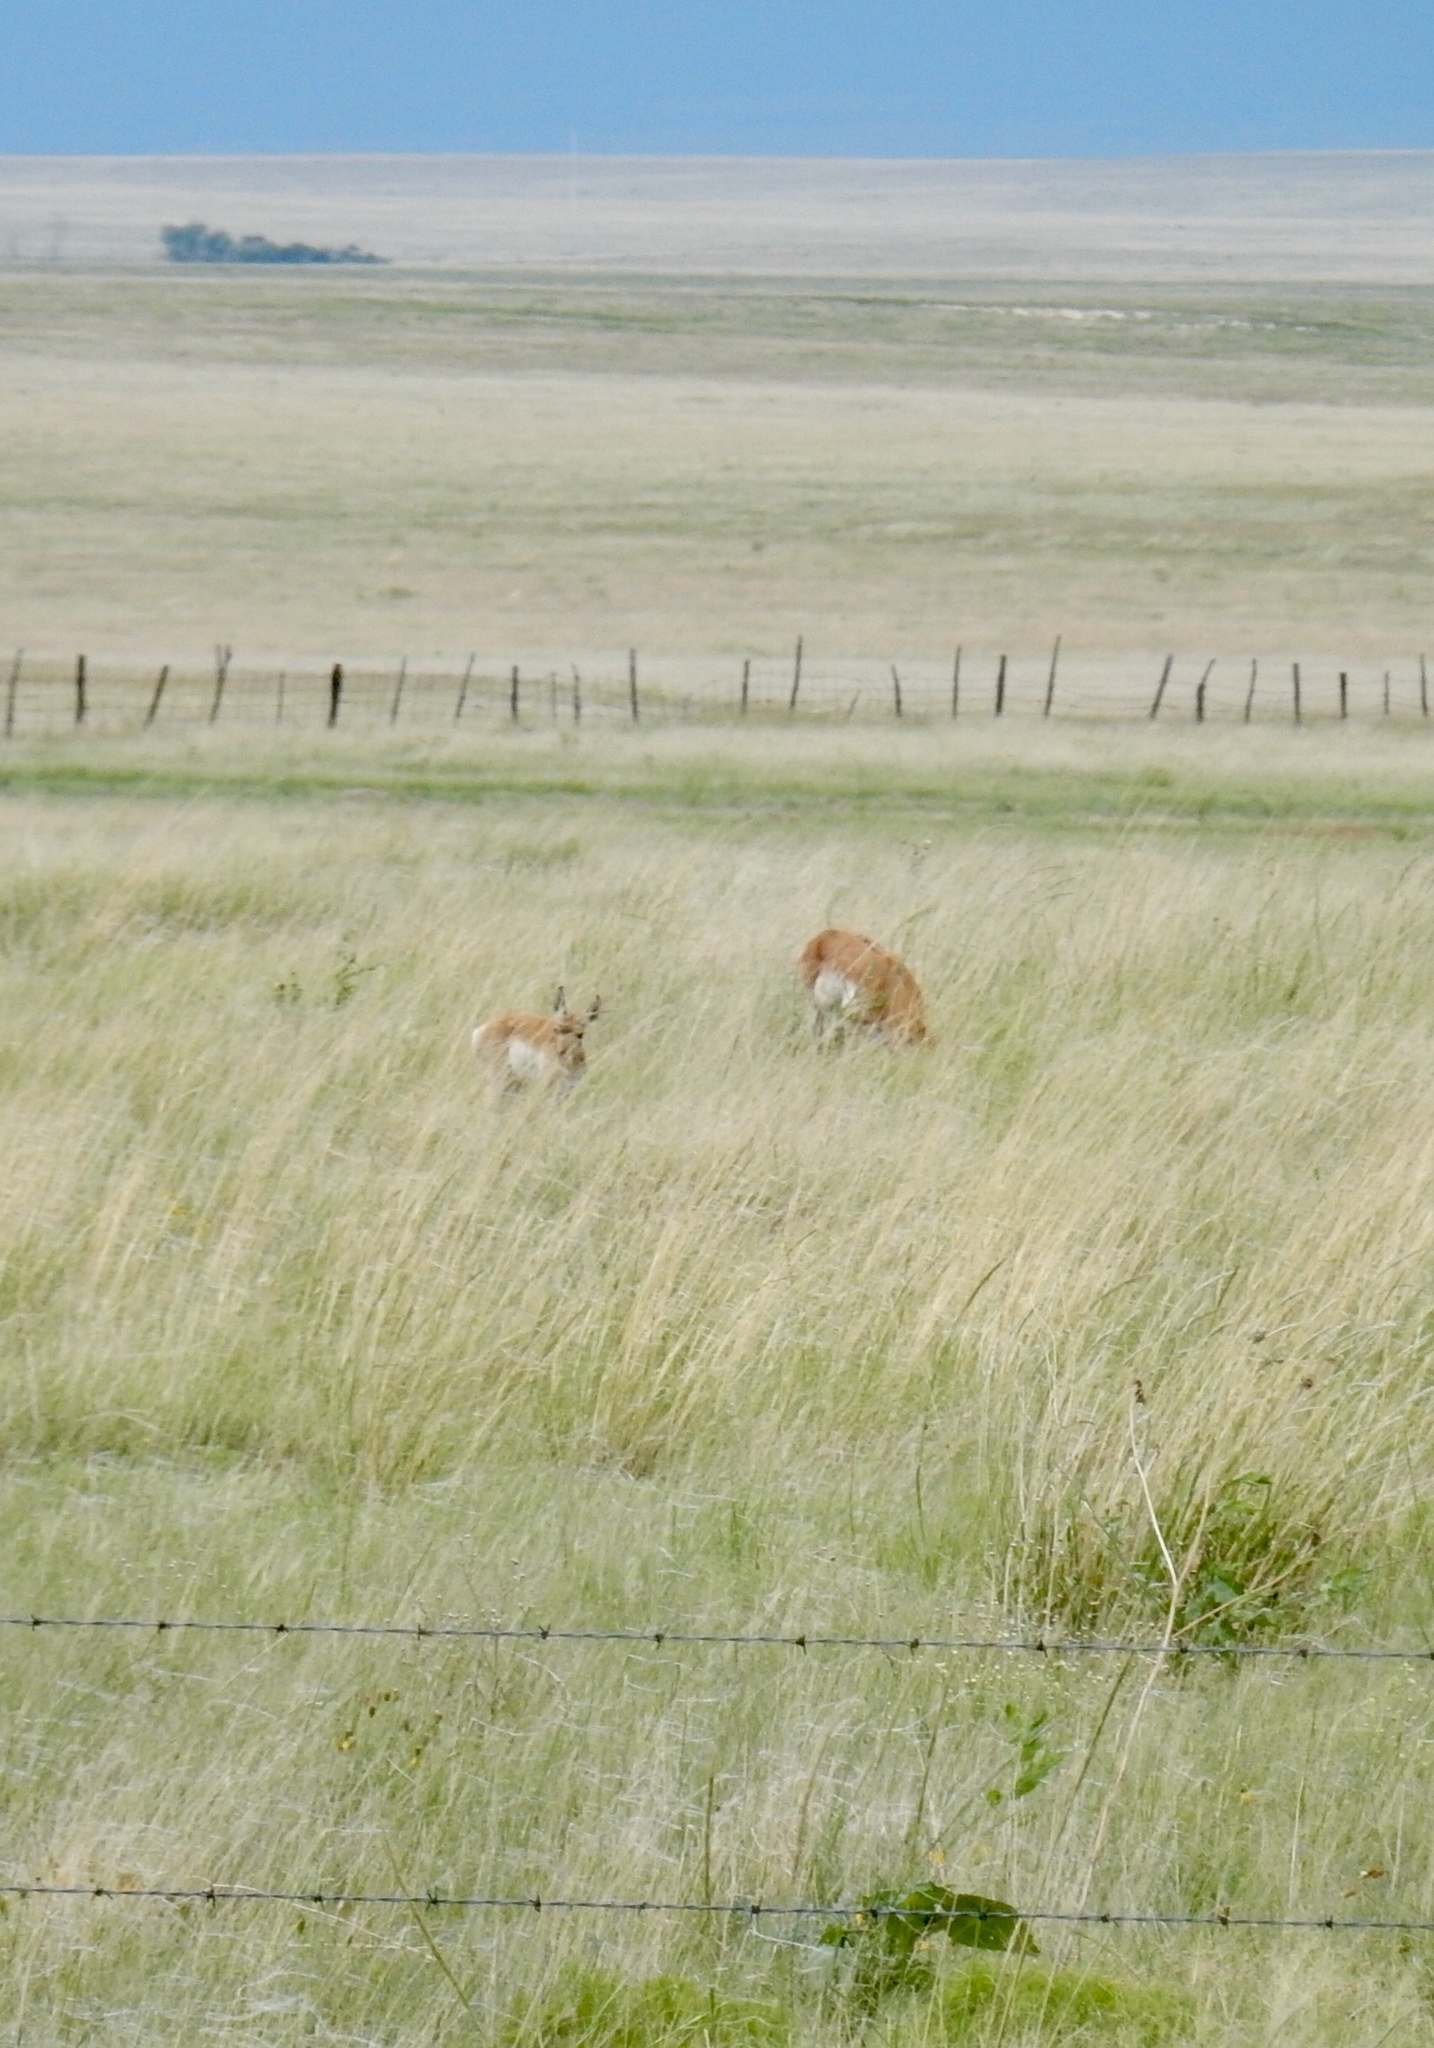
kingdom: Animalia
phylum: Chordata
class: Mammalia
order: Artiodactyla
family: Antilocapridae
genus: Antilocapra
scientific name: Antilocapra americana
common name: Pronghorn
